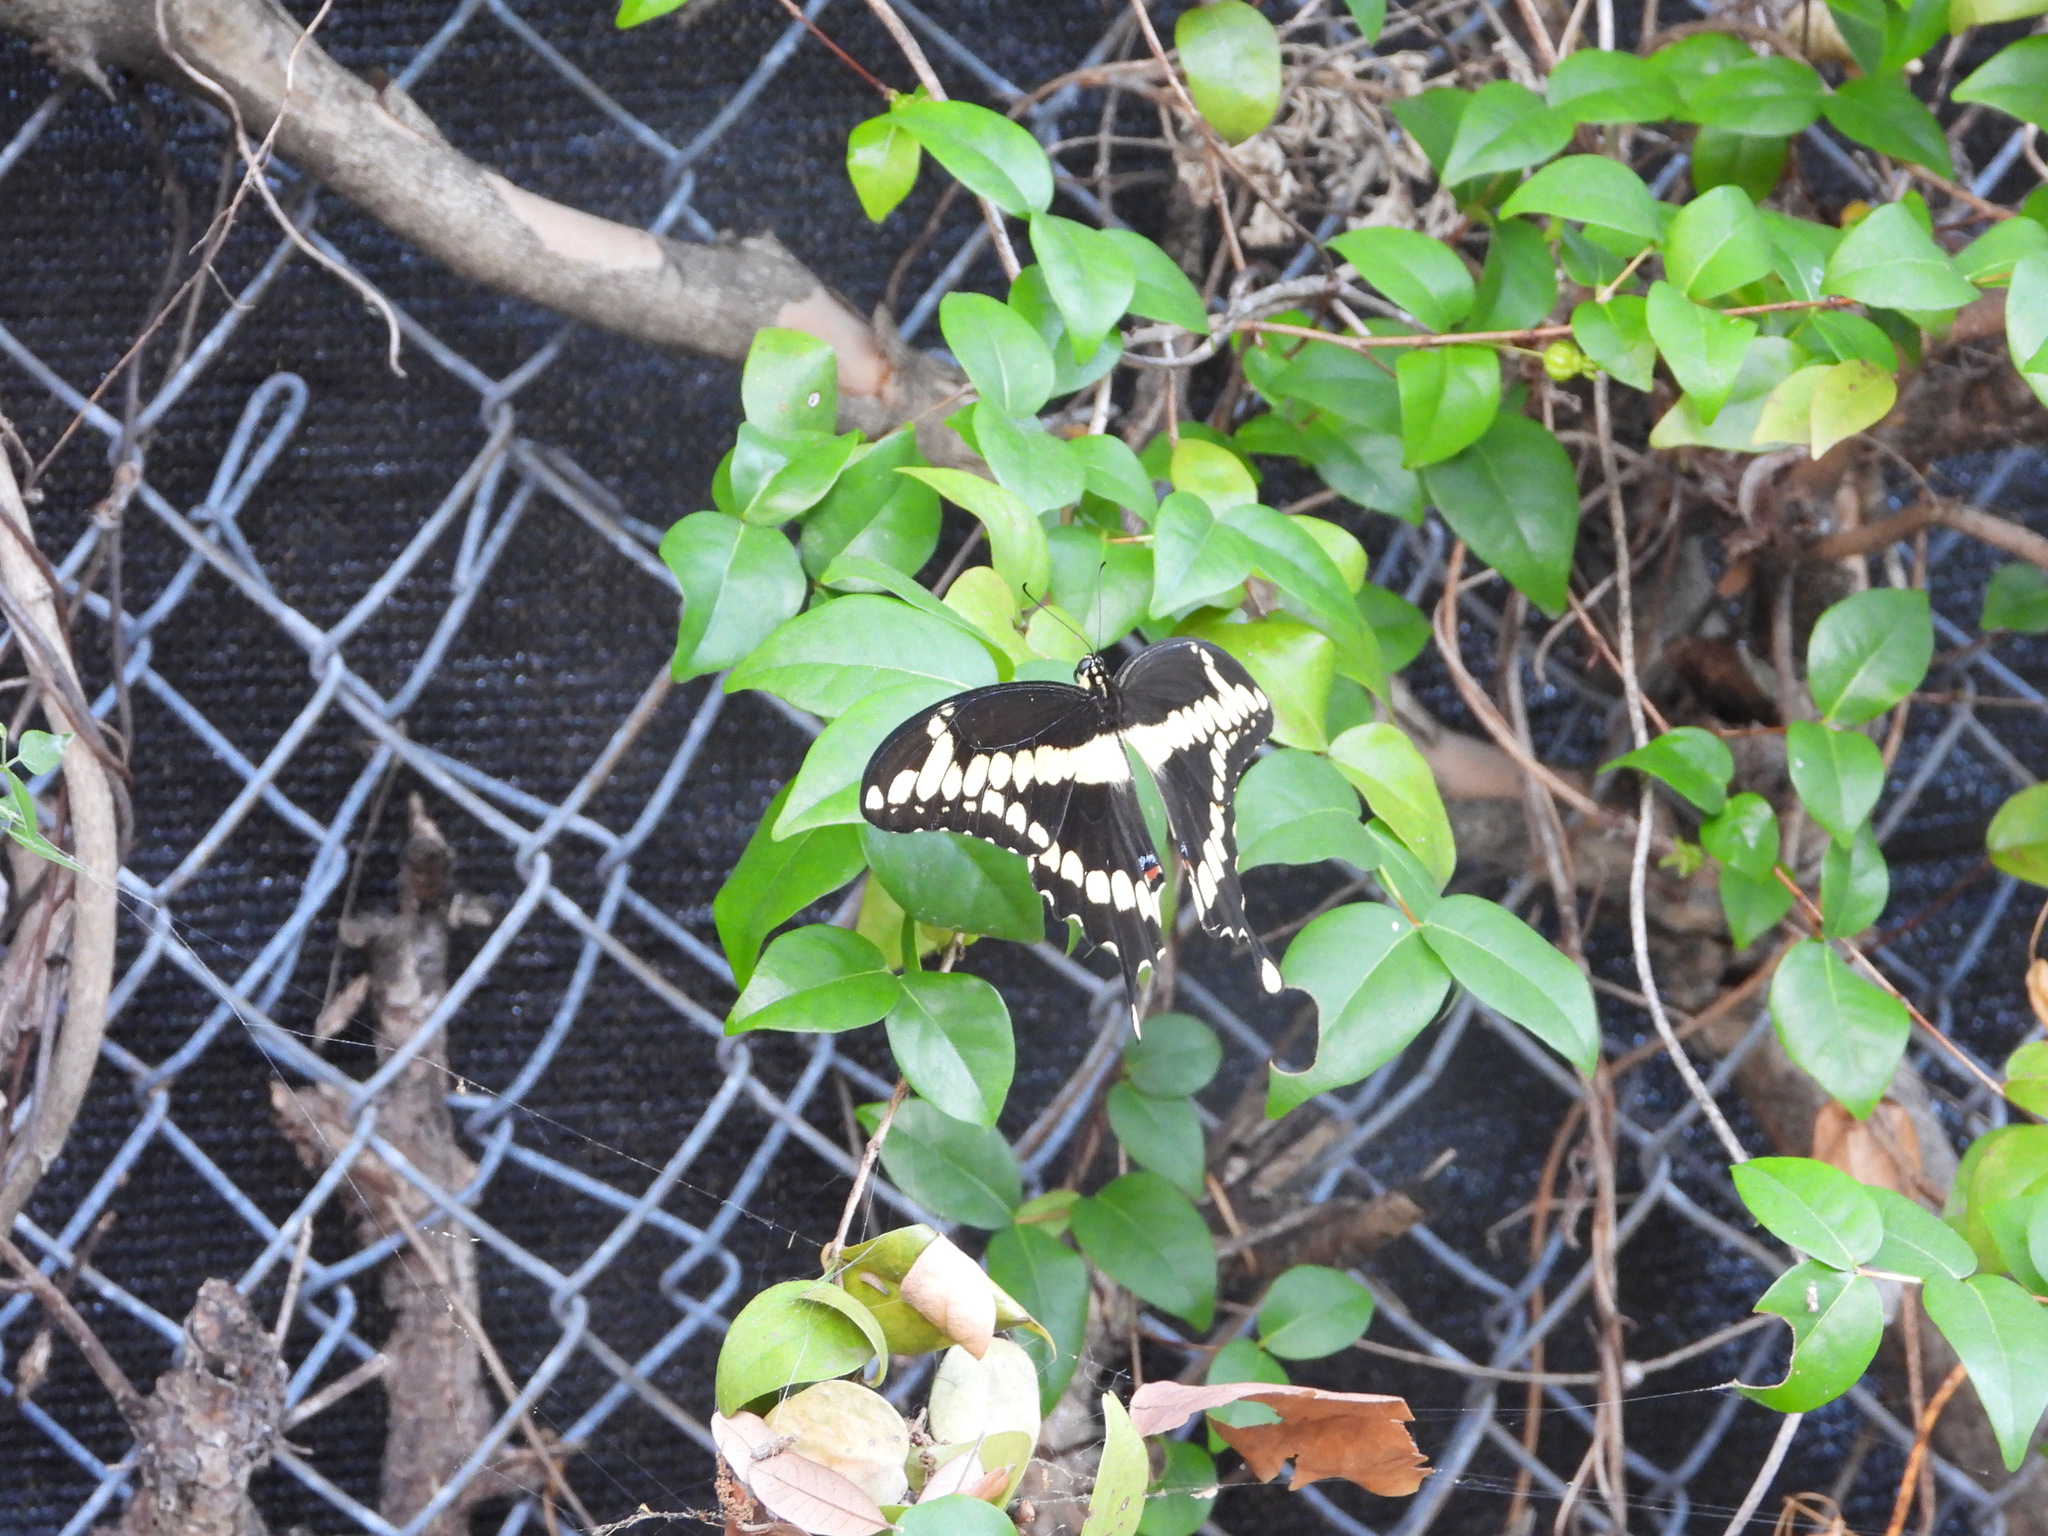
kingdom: Animalia
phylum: Arthropoda
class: Insecta
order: Lepidoptera
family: Papilionidae
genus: Papilio
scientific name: Papilio cresphontes
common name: Giant swallowtail
